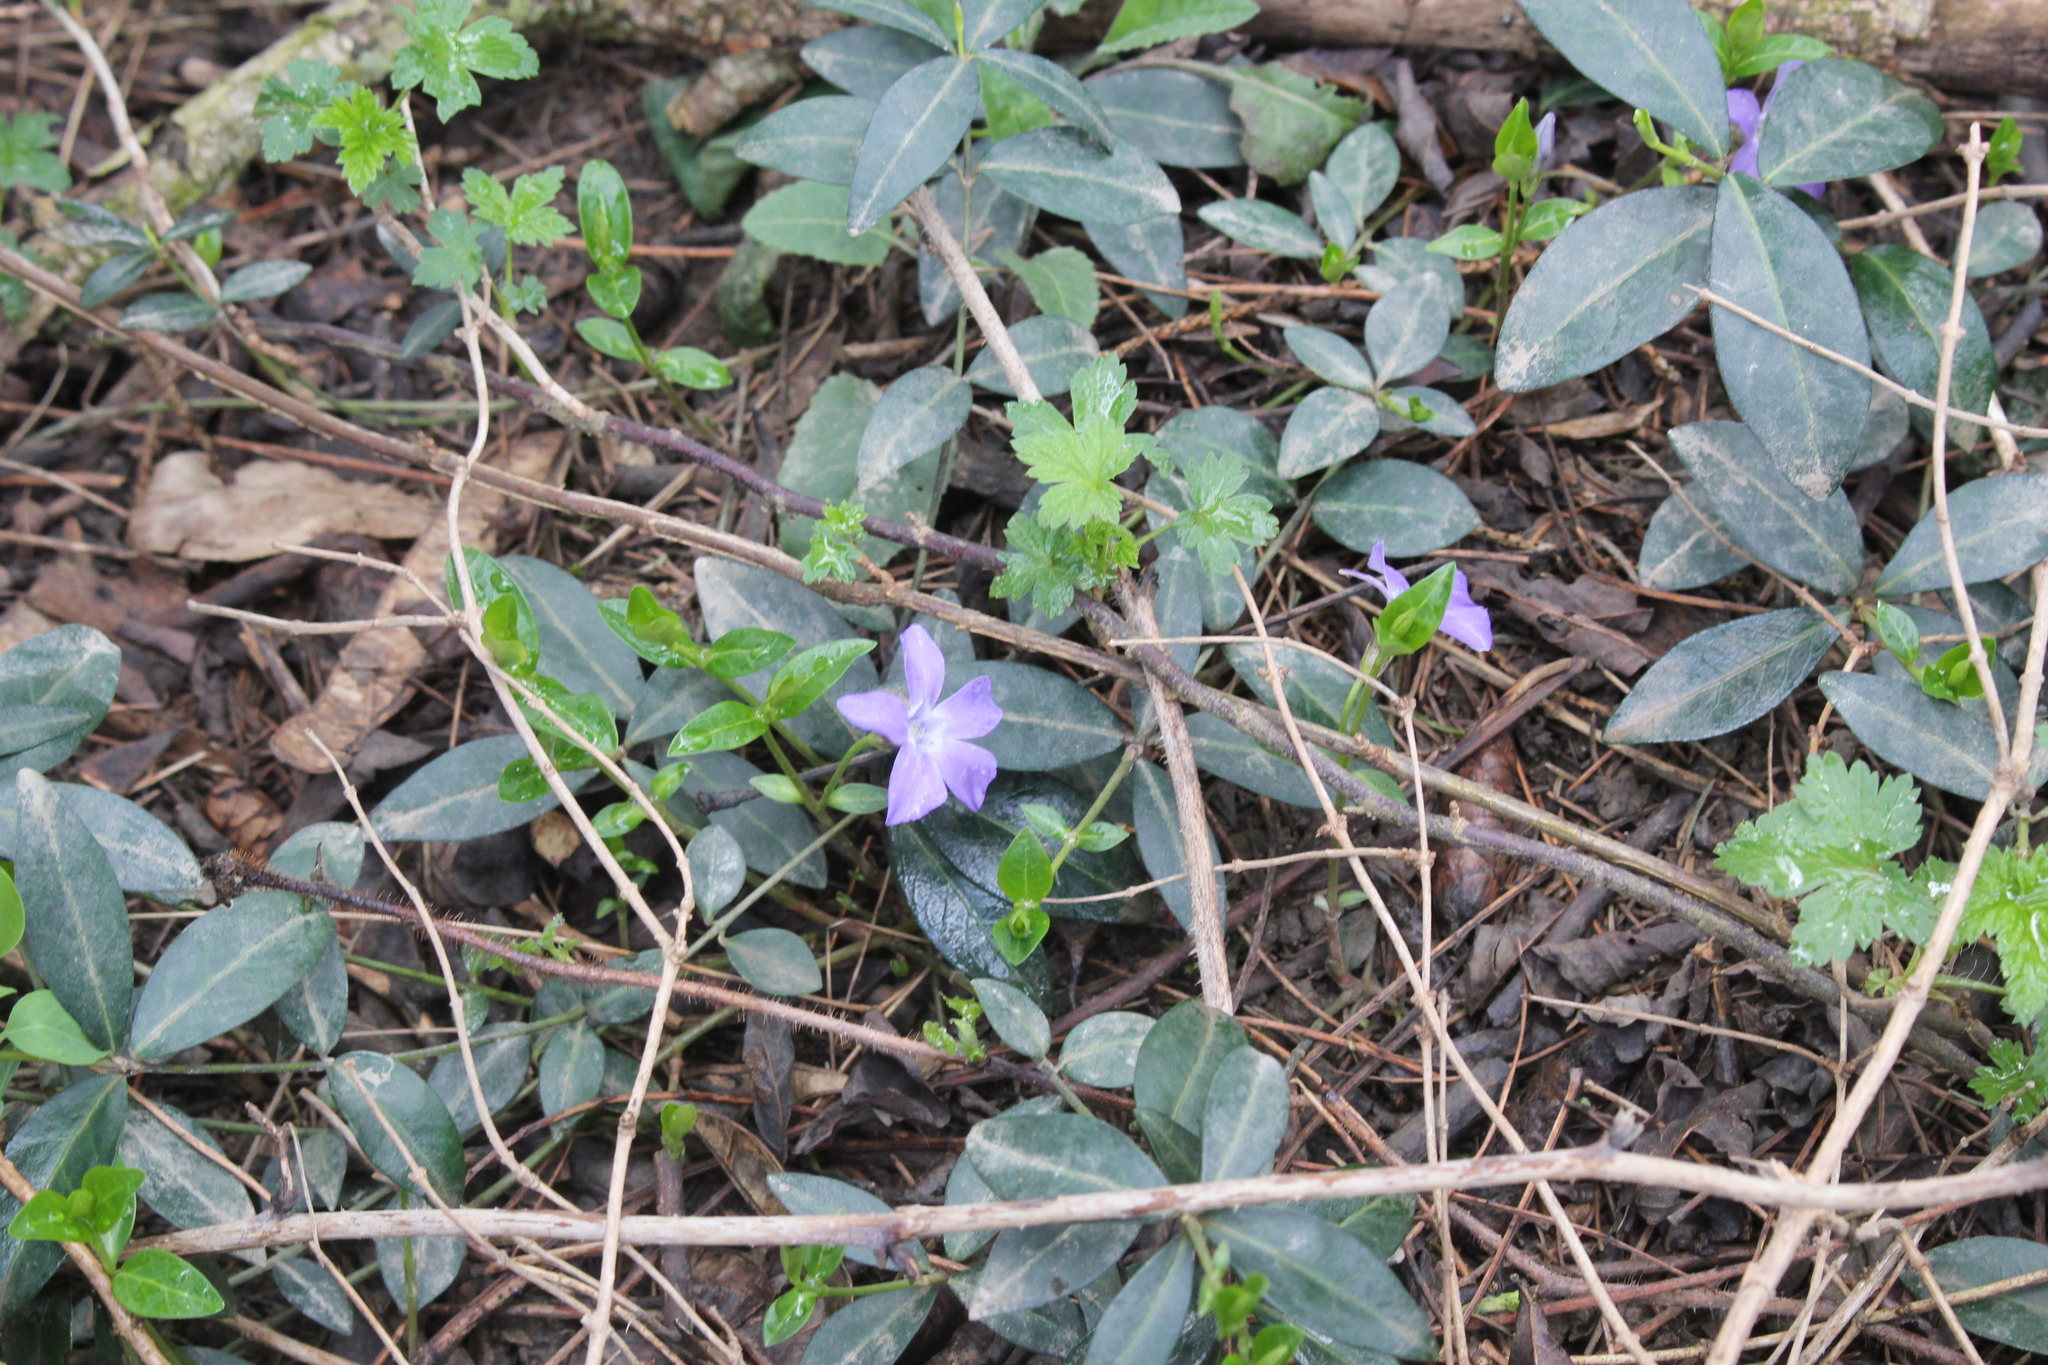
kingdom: Plantae
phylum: Tracheophyta
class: Magnoliopsida
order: Gentianales
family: Apocynaceae
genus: Vinca
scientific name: Vinca minor
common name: Lesser periwinkle
